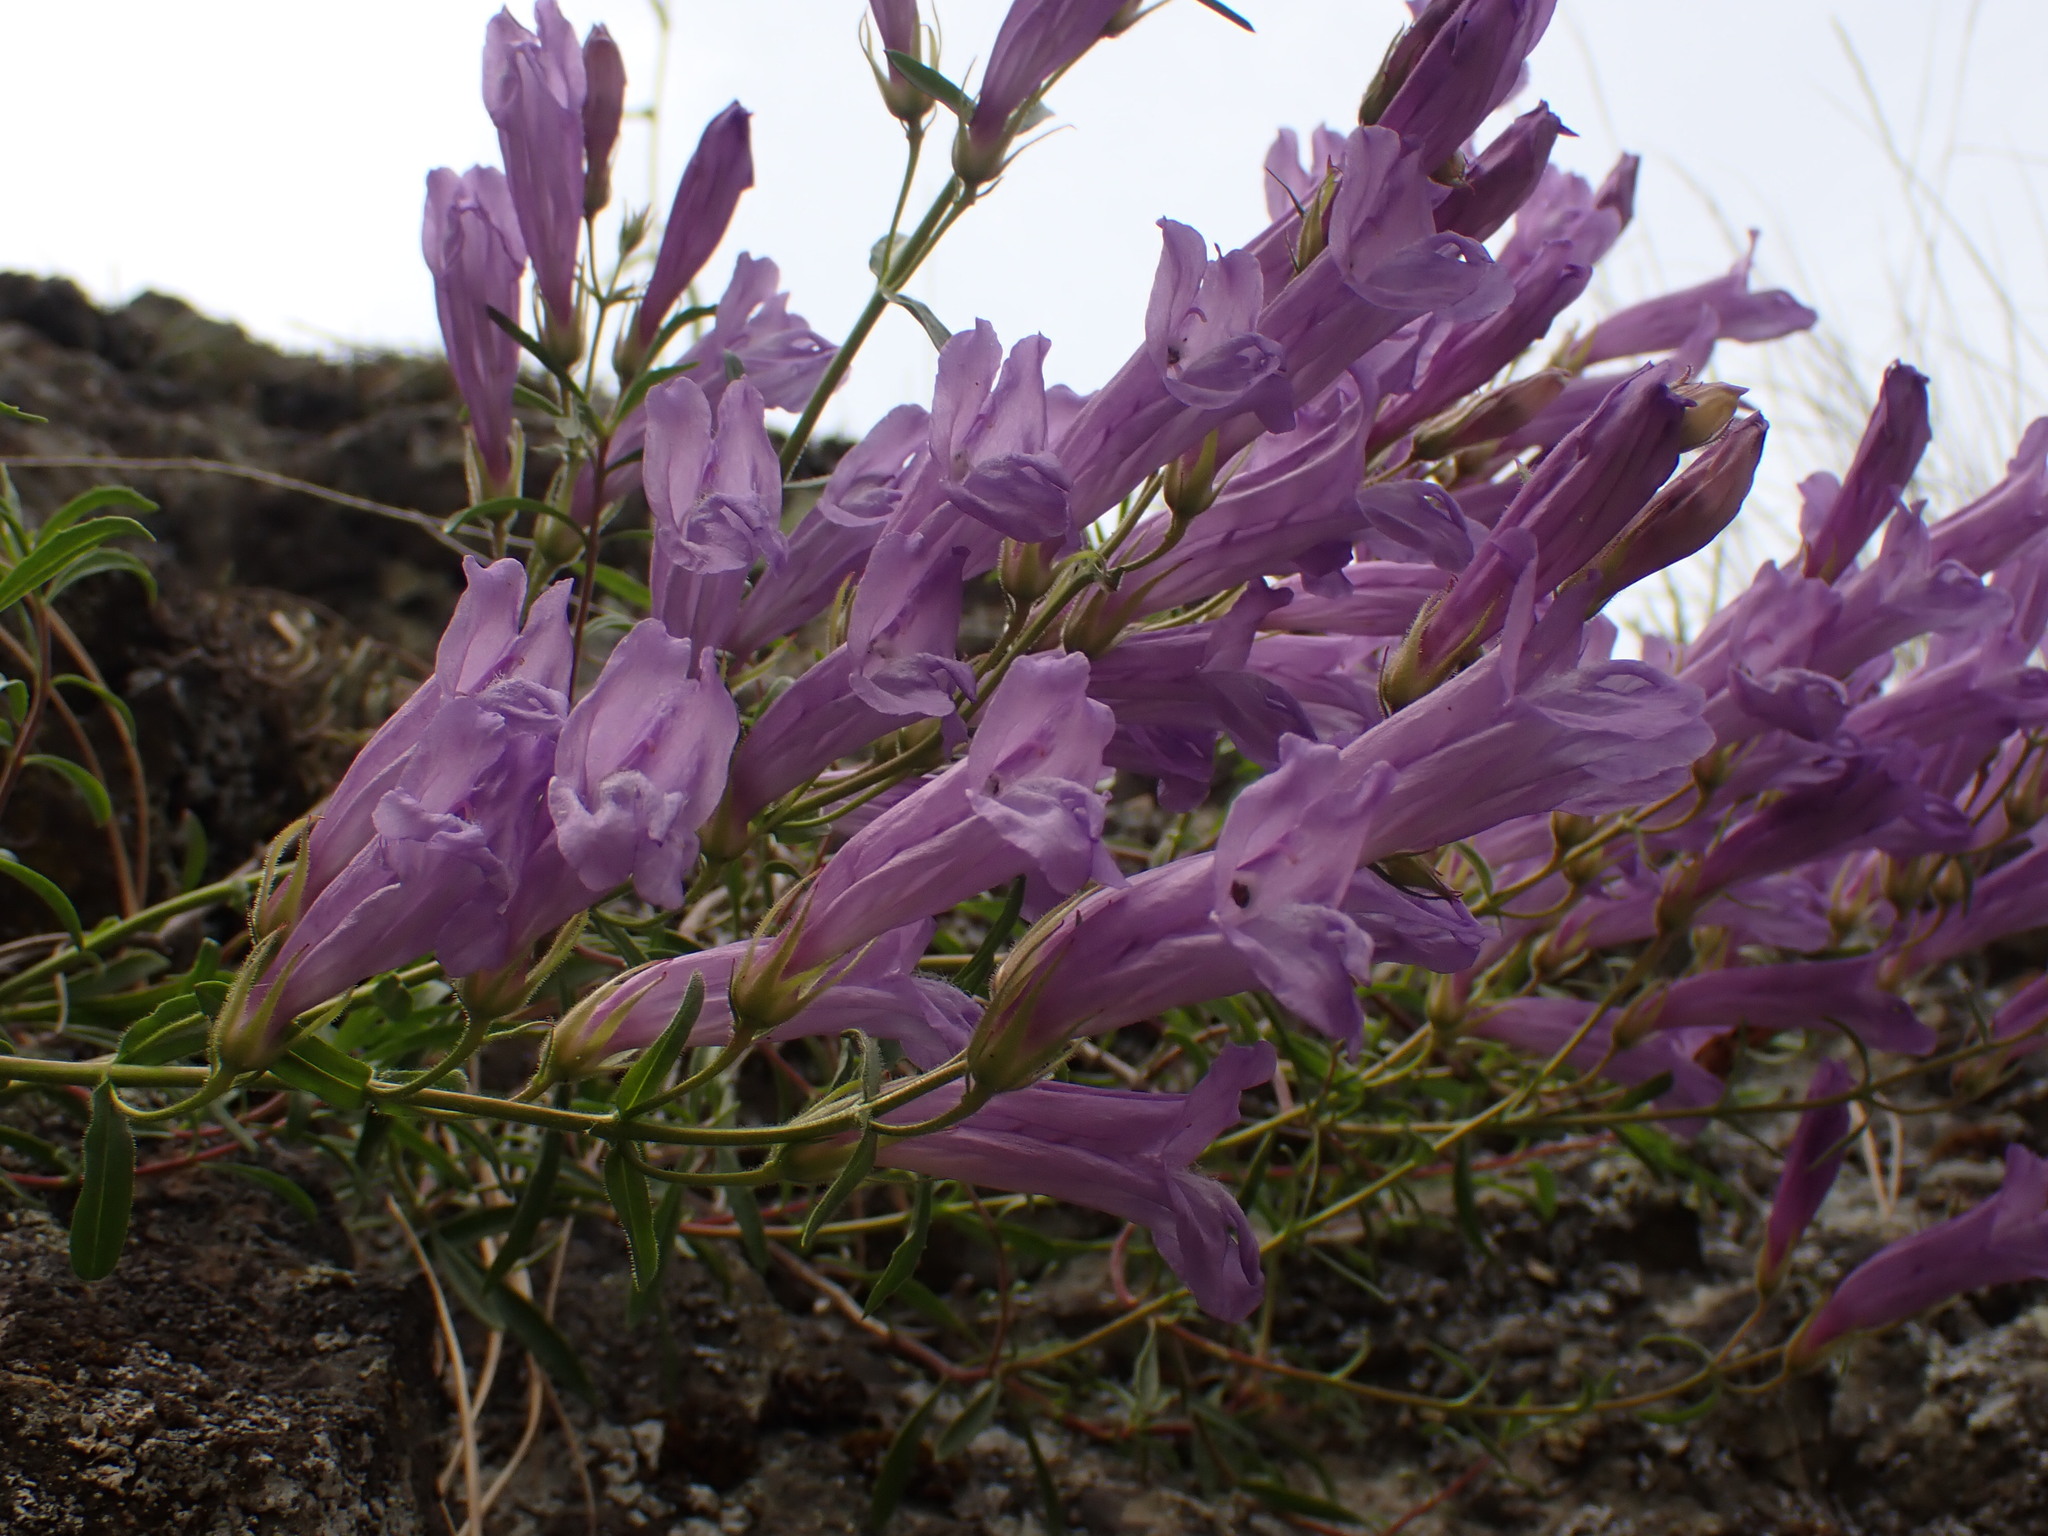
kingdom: Plantae
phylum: Tracheophyta
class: Magnoliopsida
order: Lamiales
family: Plantaginaceae
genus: Penstemon
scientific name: Penstemon fruticosus
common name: Bush penstemon
